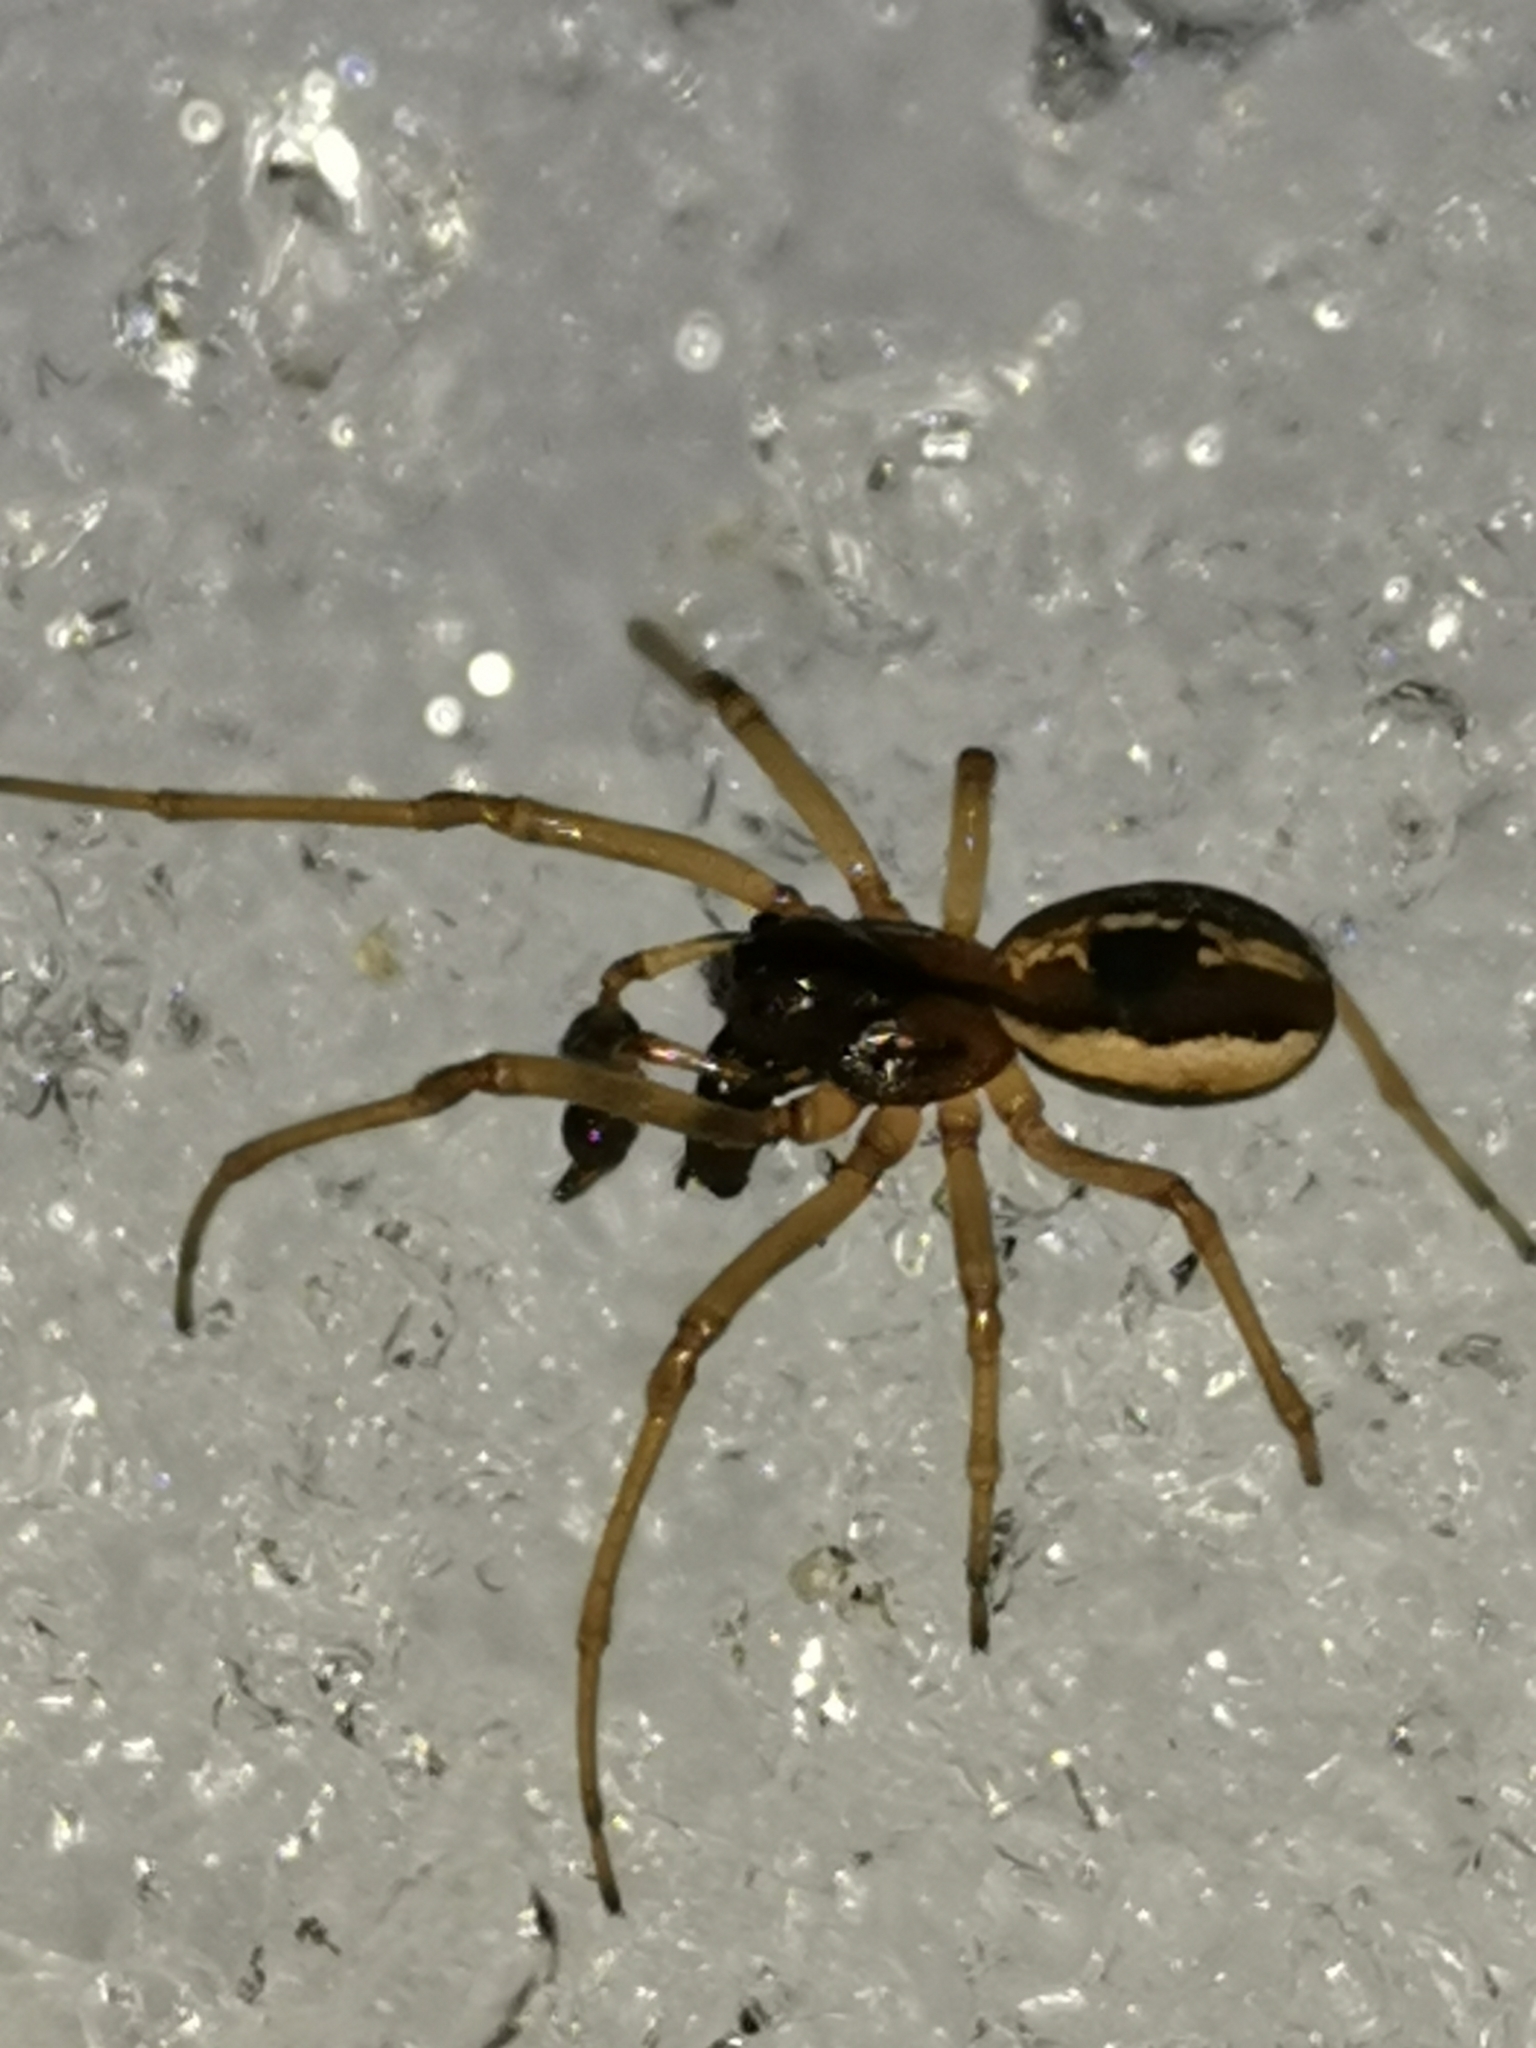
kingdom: Animalia
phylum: Arthropoda
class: Arachnida
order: Araneae
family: Tetragnathidae
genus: Pachygnatha
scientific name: Pachygnatha degeeri
